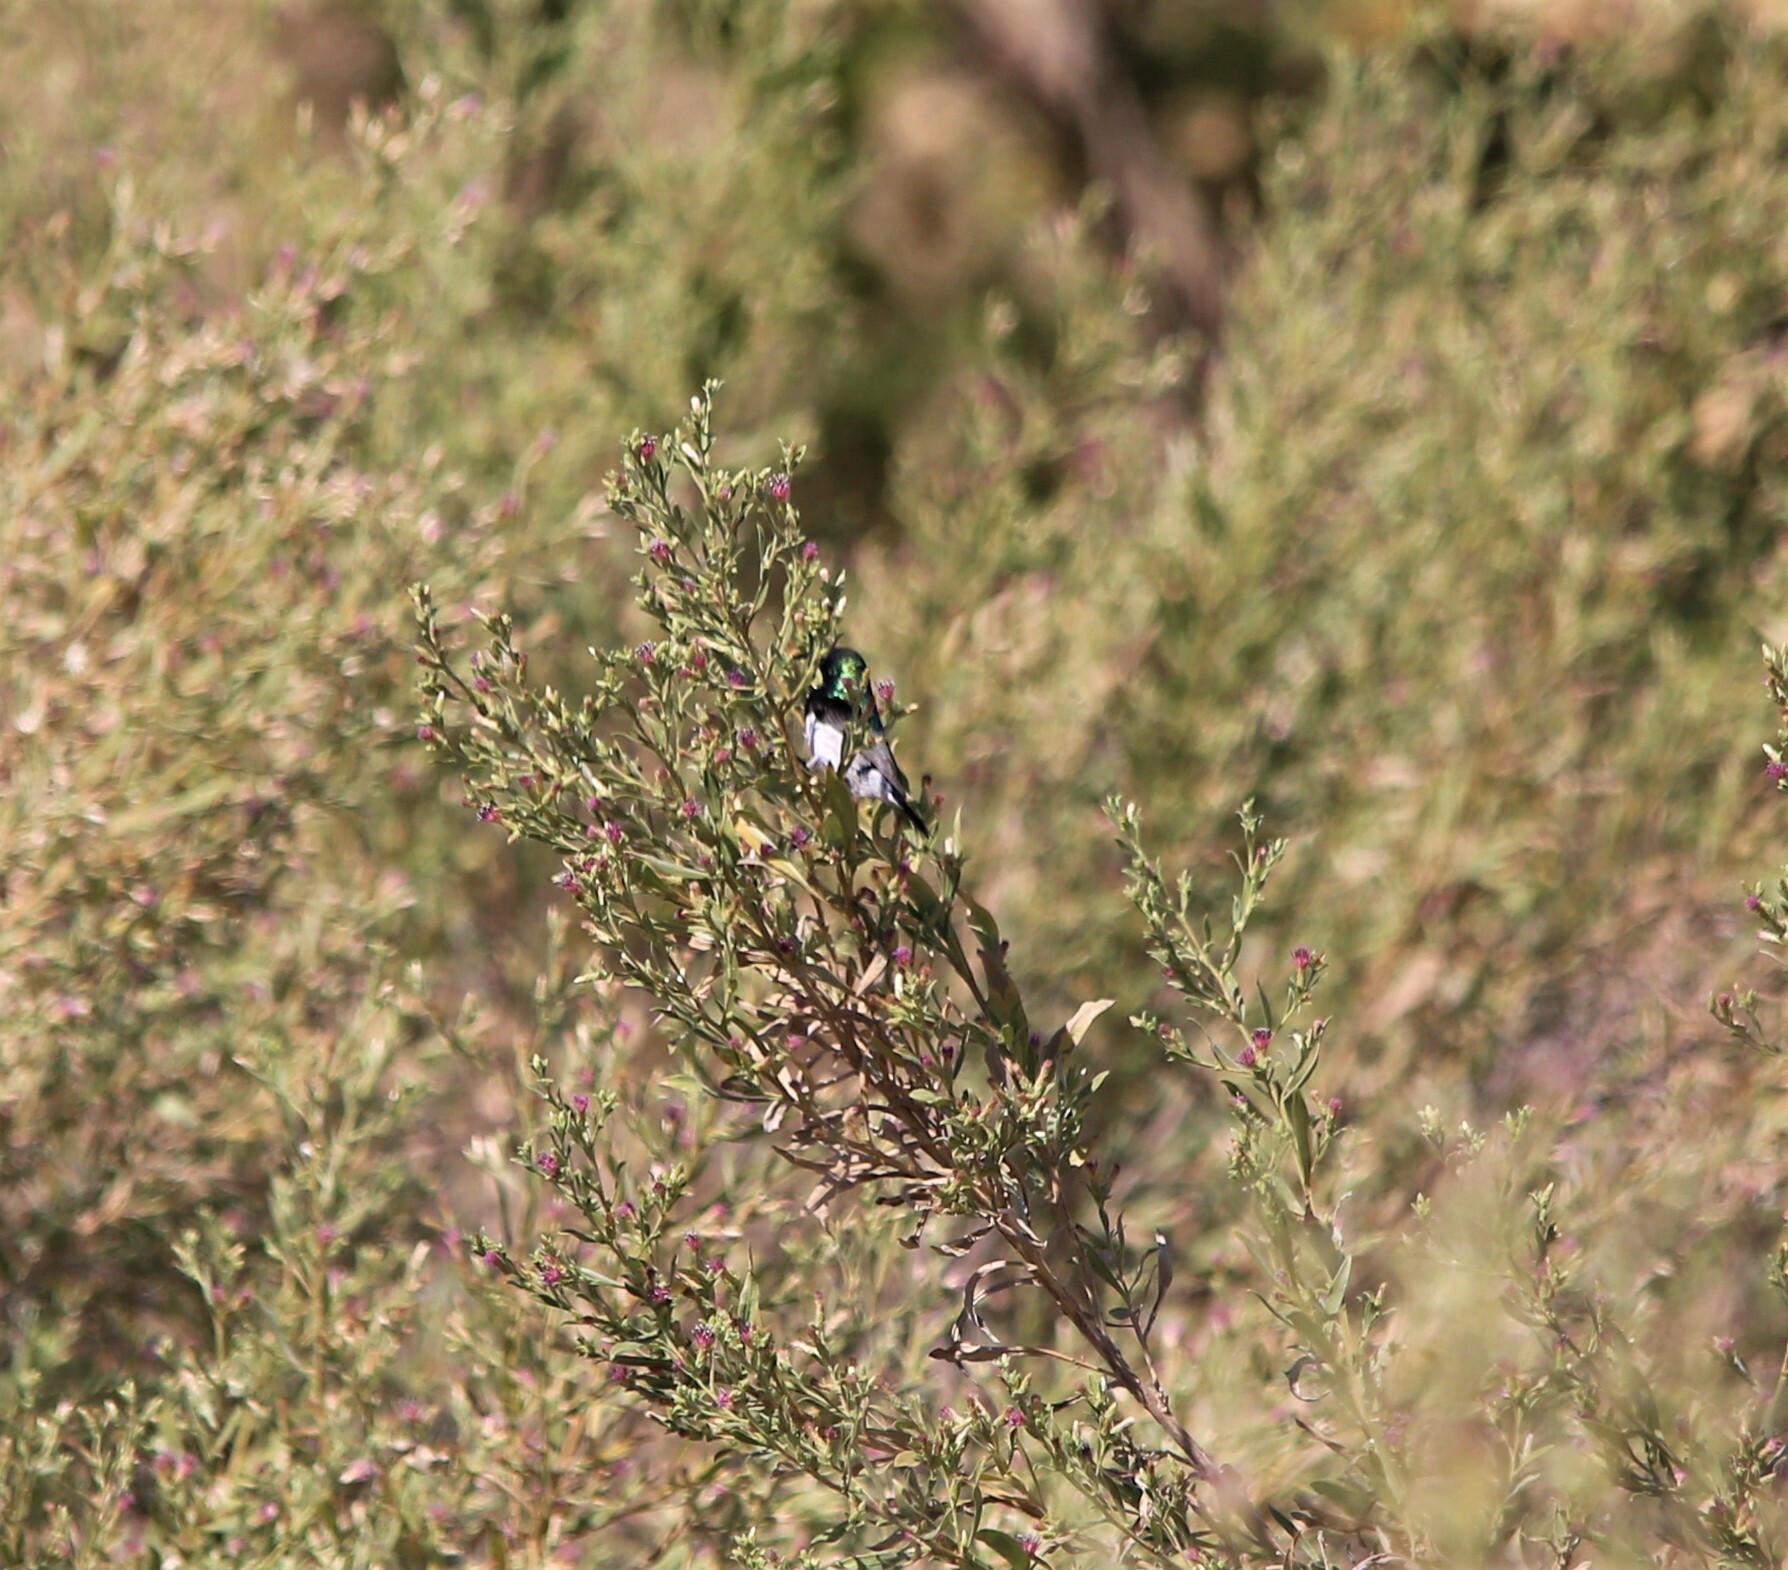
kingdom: Animalia
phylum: Chordata
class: Aves
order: Passeriformes
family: Nectariniidae
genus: Cinnyris
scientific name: Cinnyris talatala
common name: White-bellied sunbird
